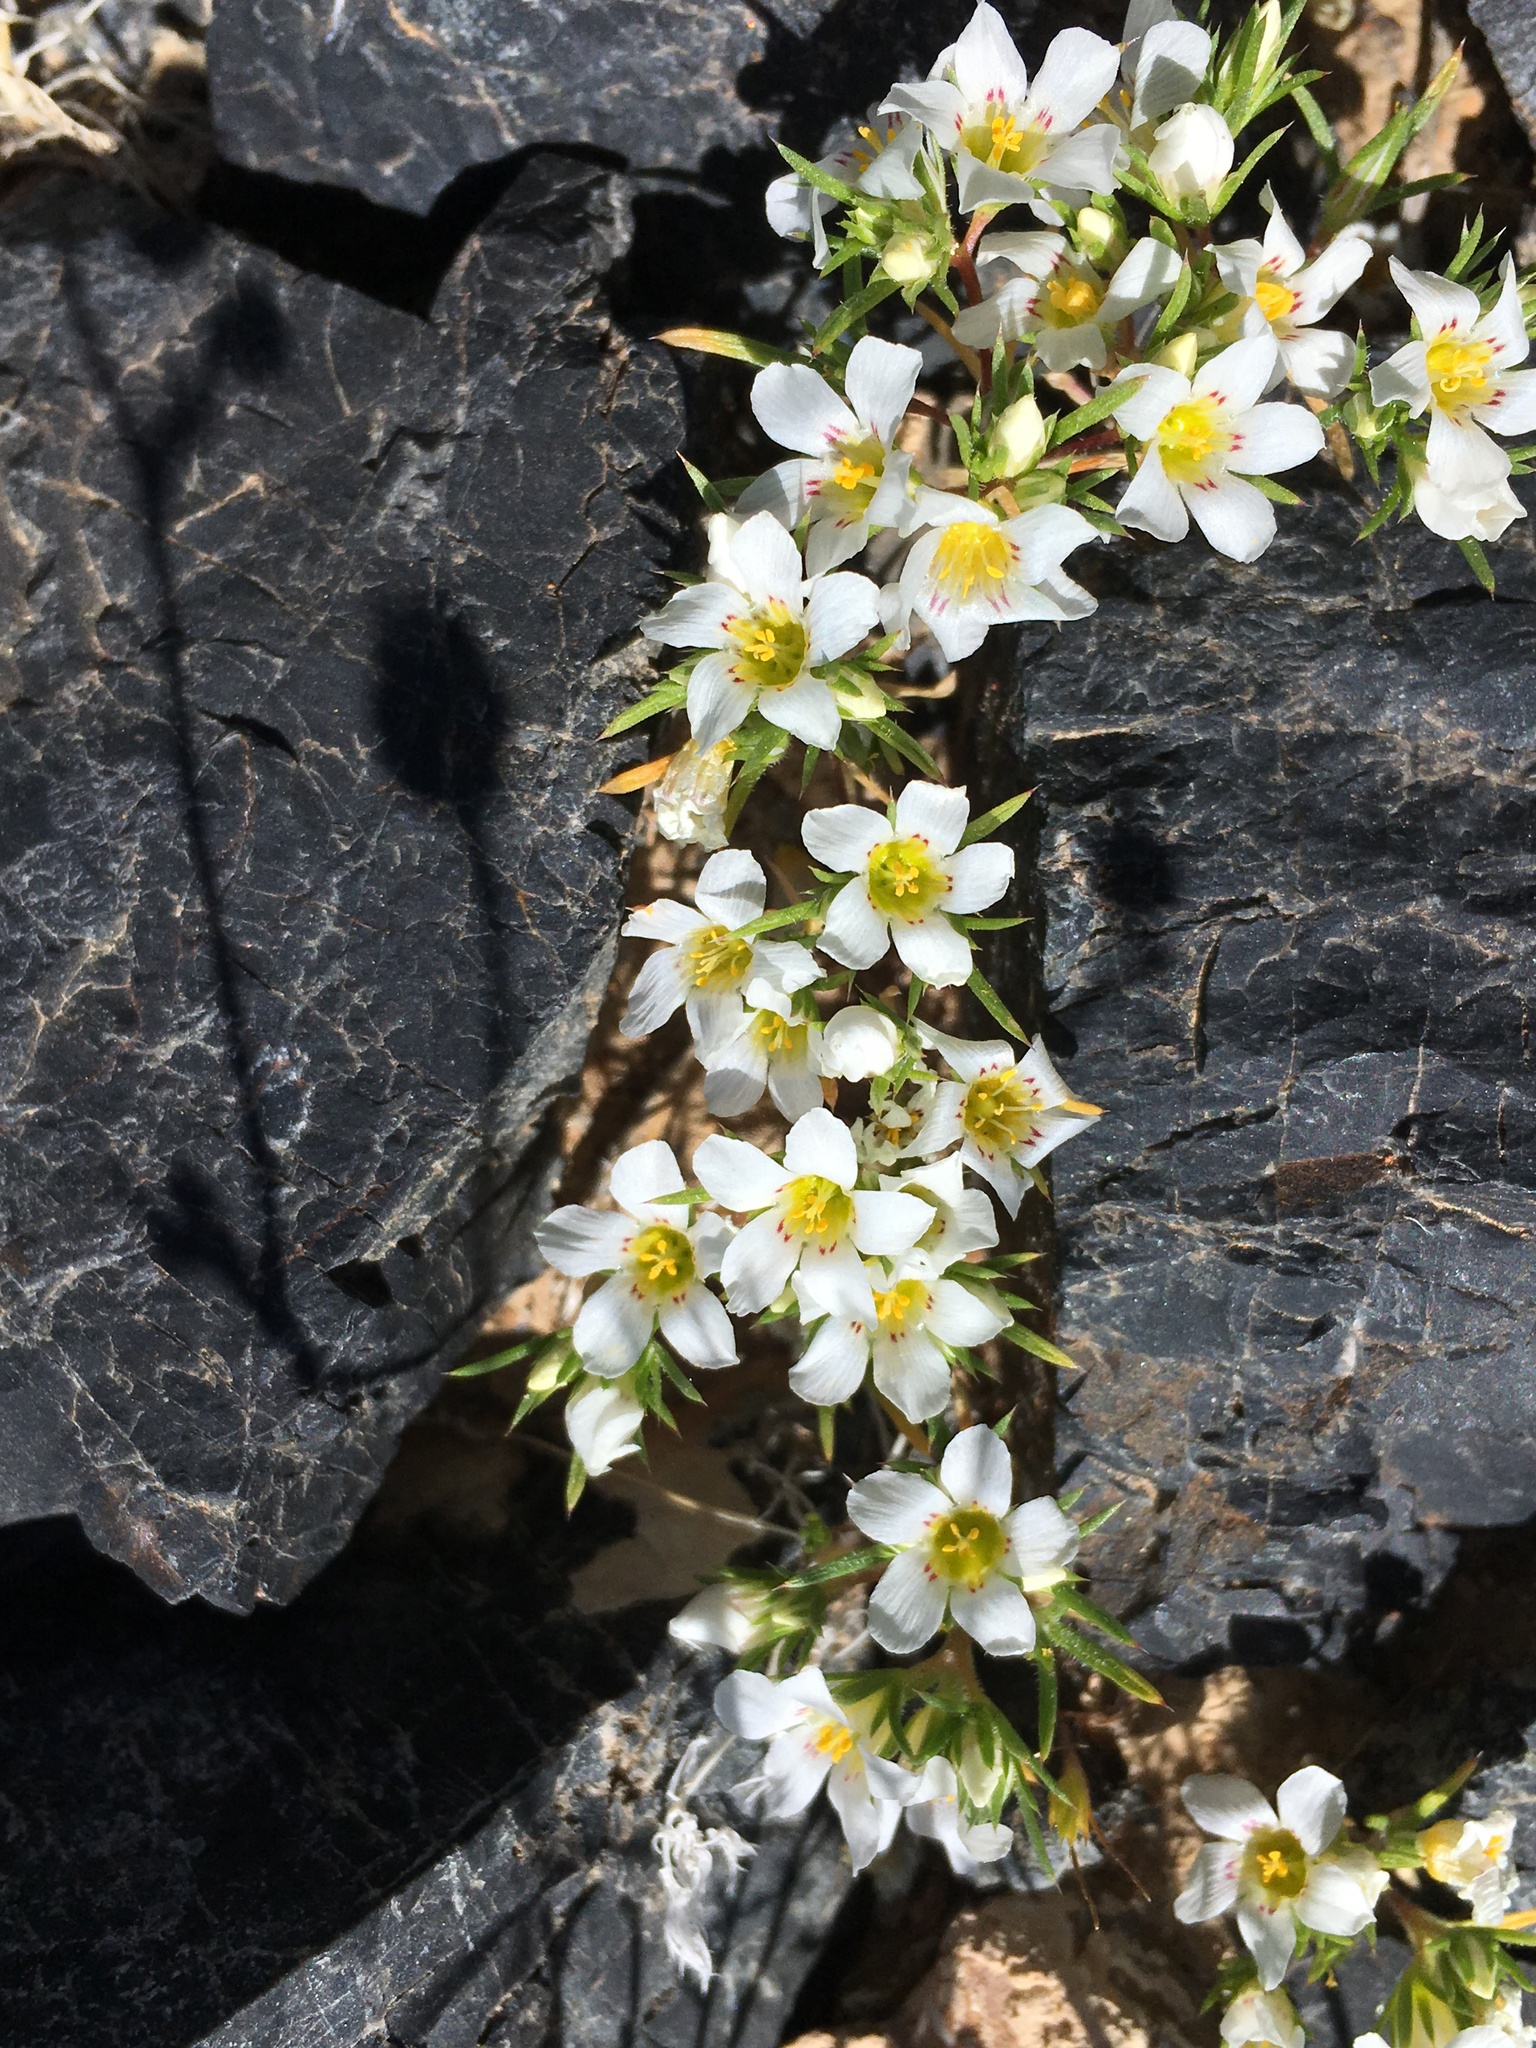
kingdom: Plantae
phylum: Tracheophyta
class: Magnoliopsida
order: Ericales
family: Polemoniaceae
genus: Linanthus
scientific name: Linanthus demissus
